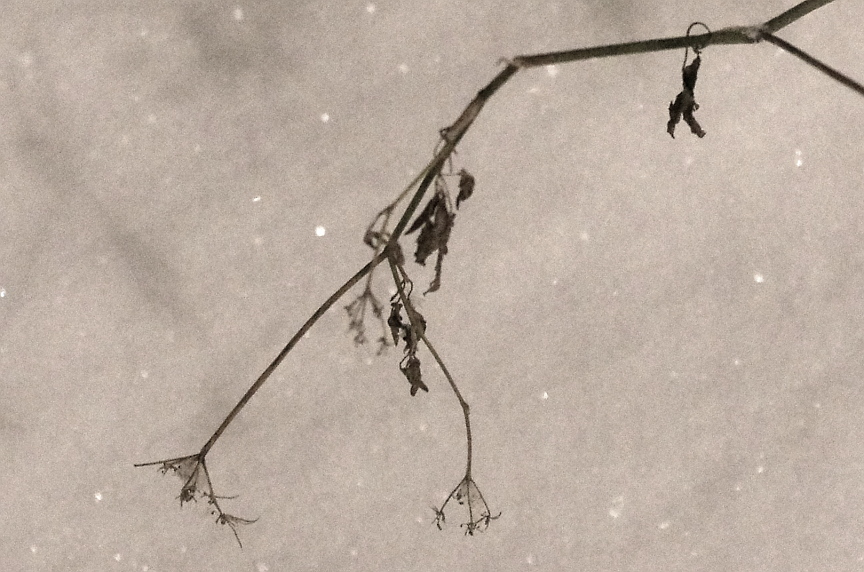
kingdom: Plantae
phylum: Tracheophyta
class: Magnoliopsida
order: Apiales
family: Apiaceae
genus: Anthriscus
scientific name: Anthriscus sylvestris
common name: Cow parsley
